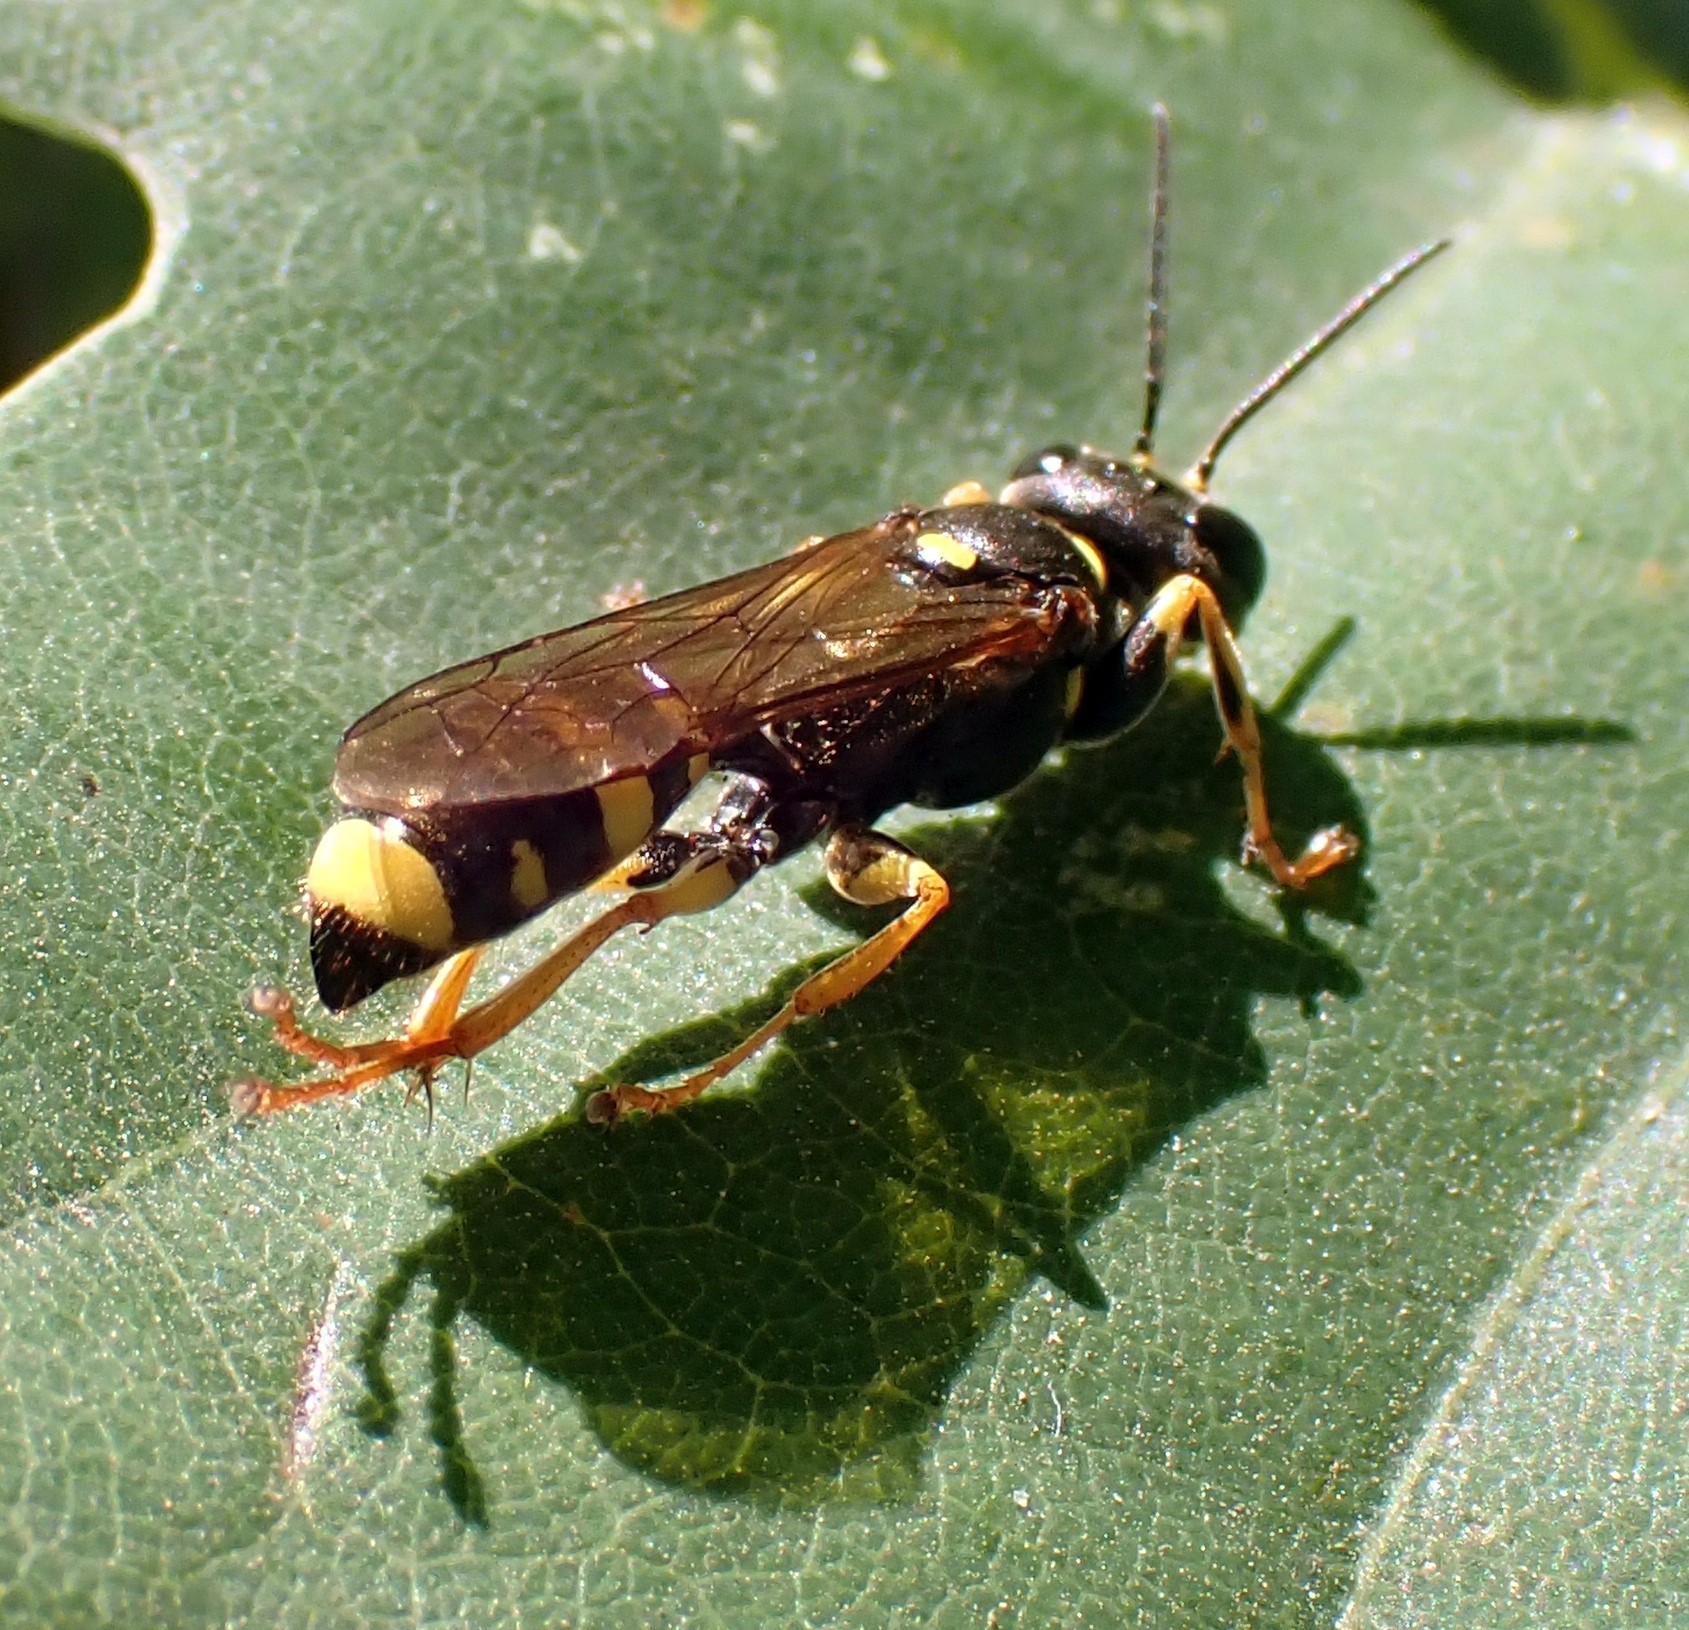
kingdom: Animalia
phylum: Arthropoda
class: Insecta
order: Hymenoptera
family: Crabronidae
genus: Mellinus
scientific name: Mellinus arvensis
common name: Field digger wasp
